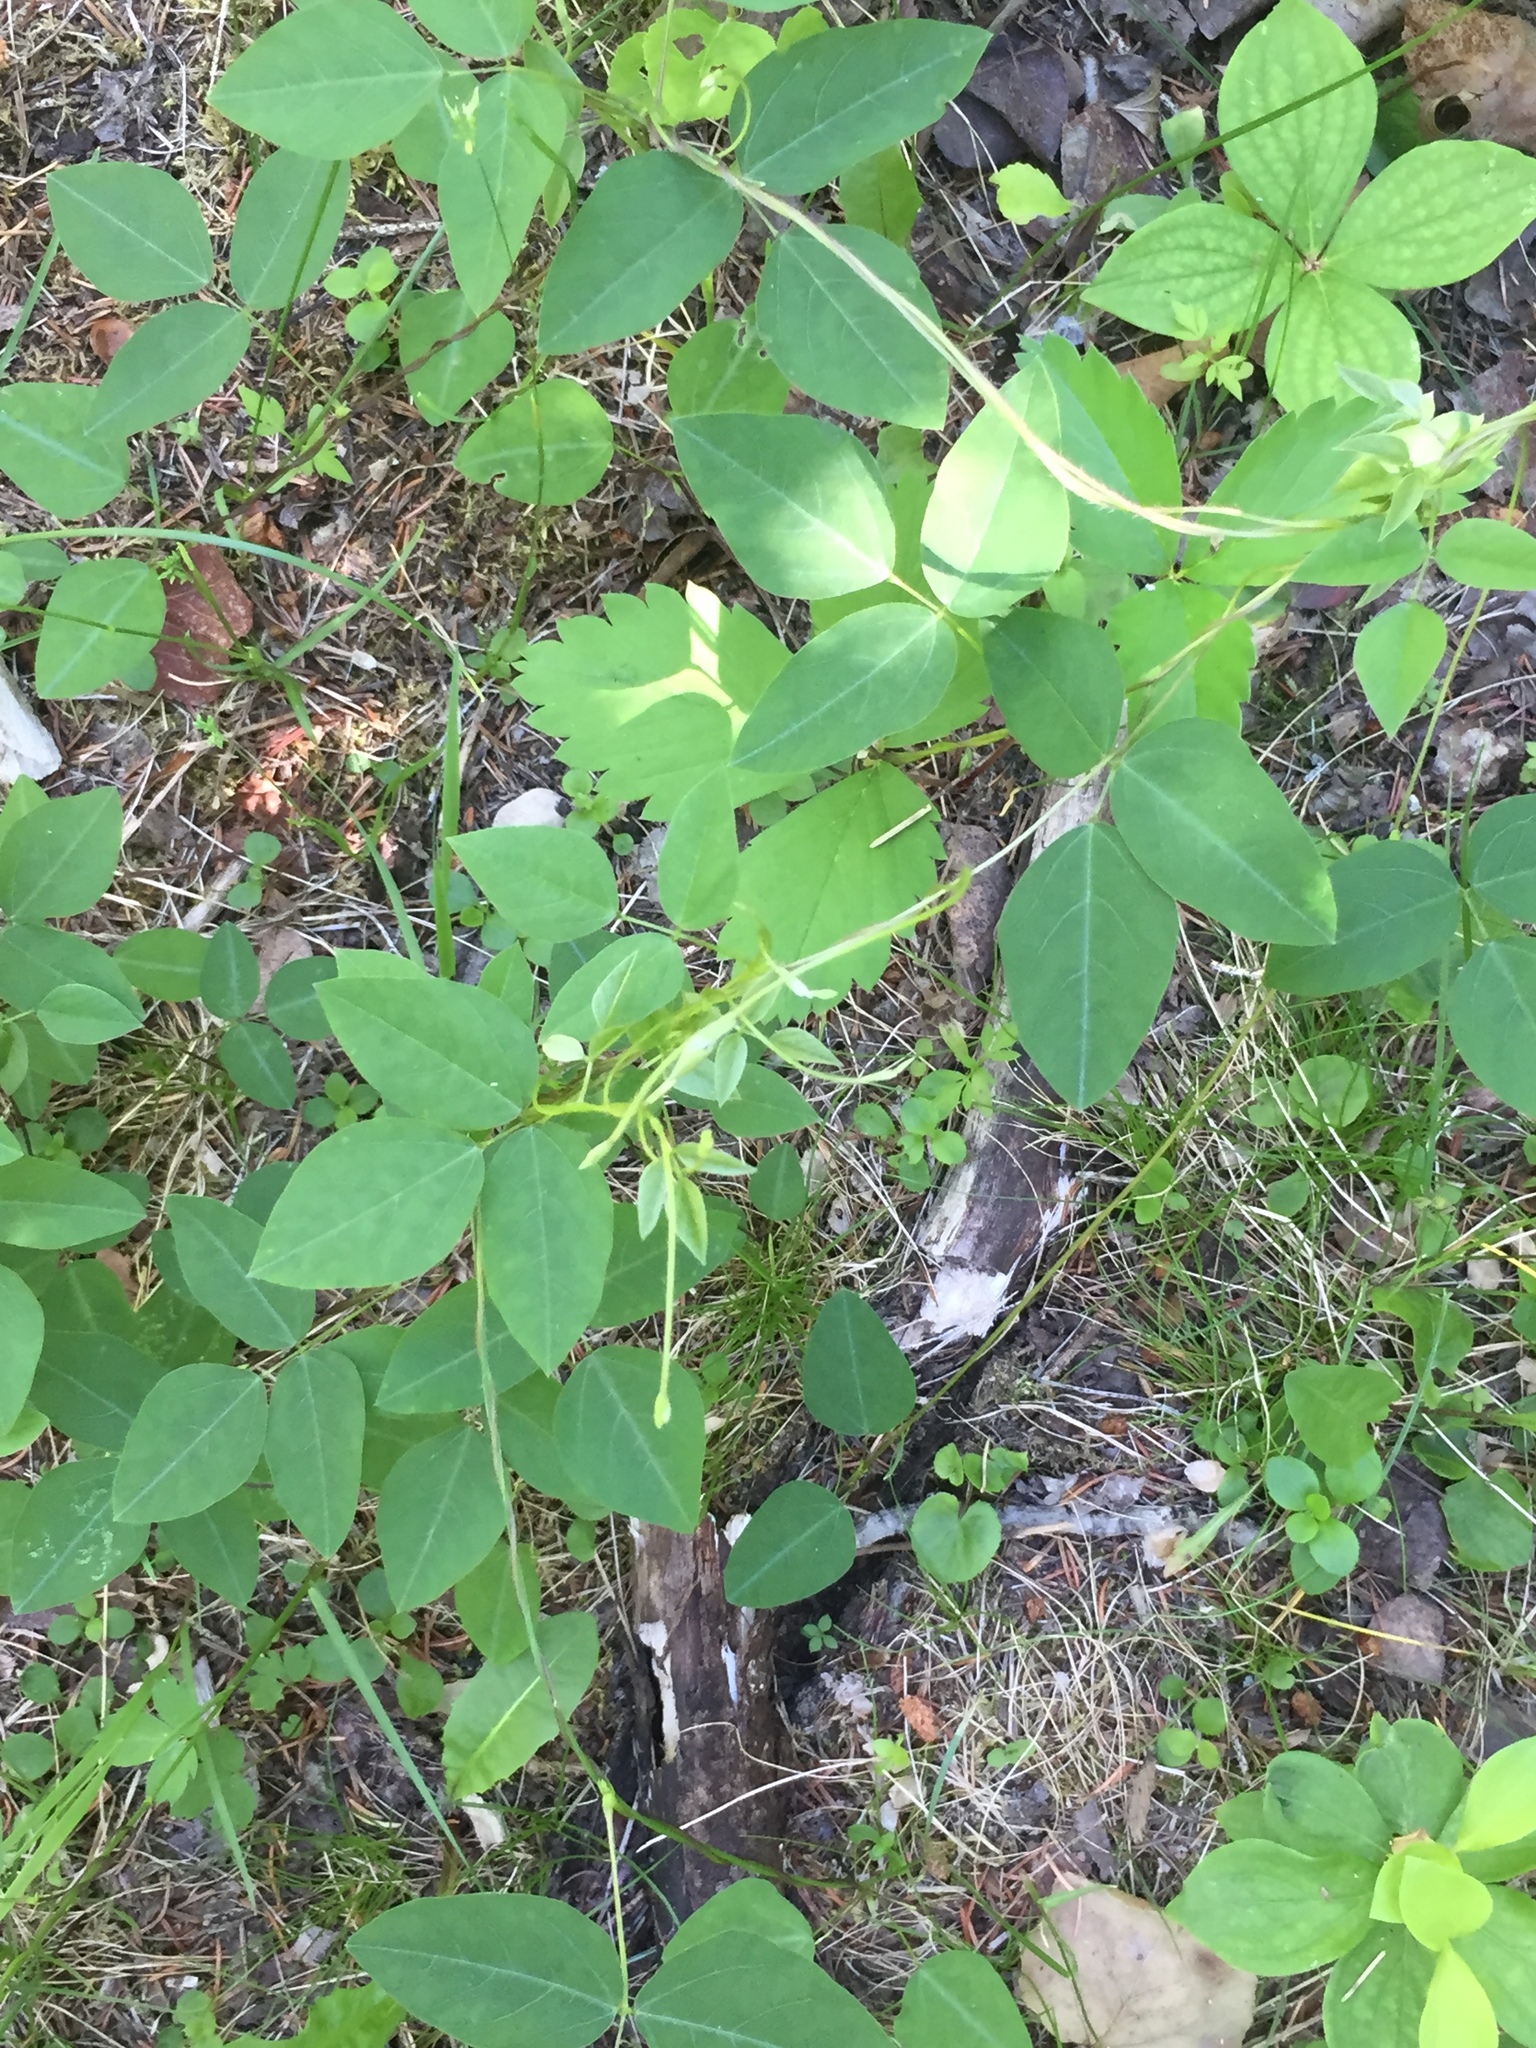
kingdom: Plantae
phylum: Tracheophyta
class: Magnoliopsida
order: Fabales
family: Fabaceae
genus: Amphicarpaea
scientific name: Amphicarpaea bracteata
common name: American hog peanut
